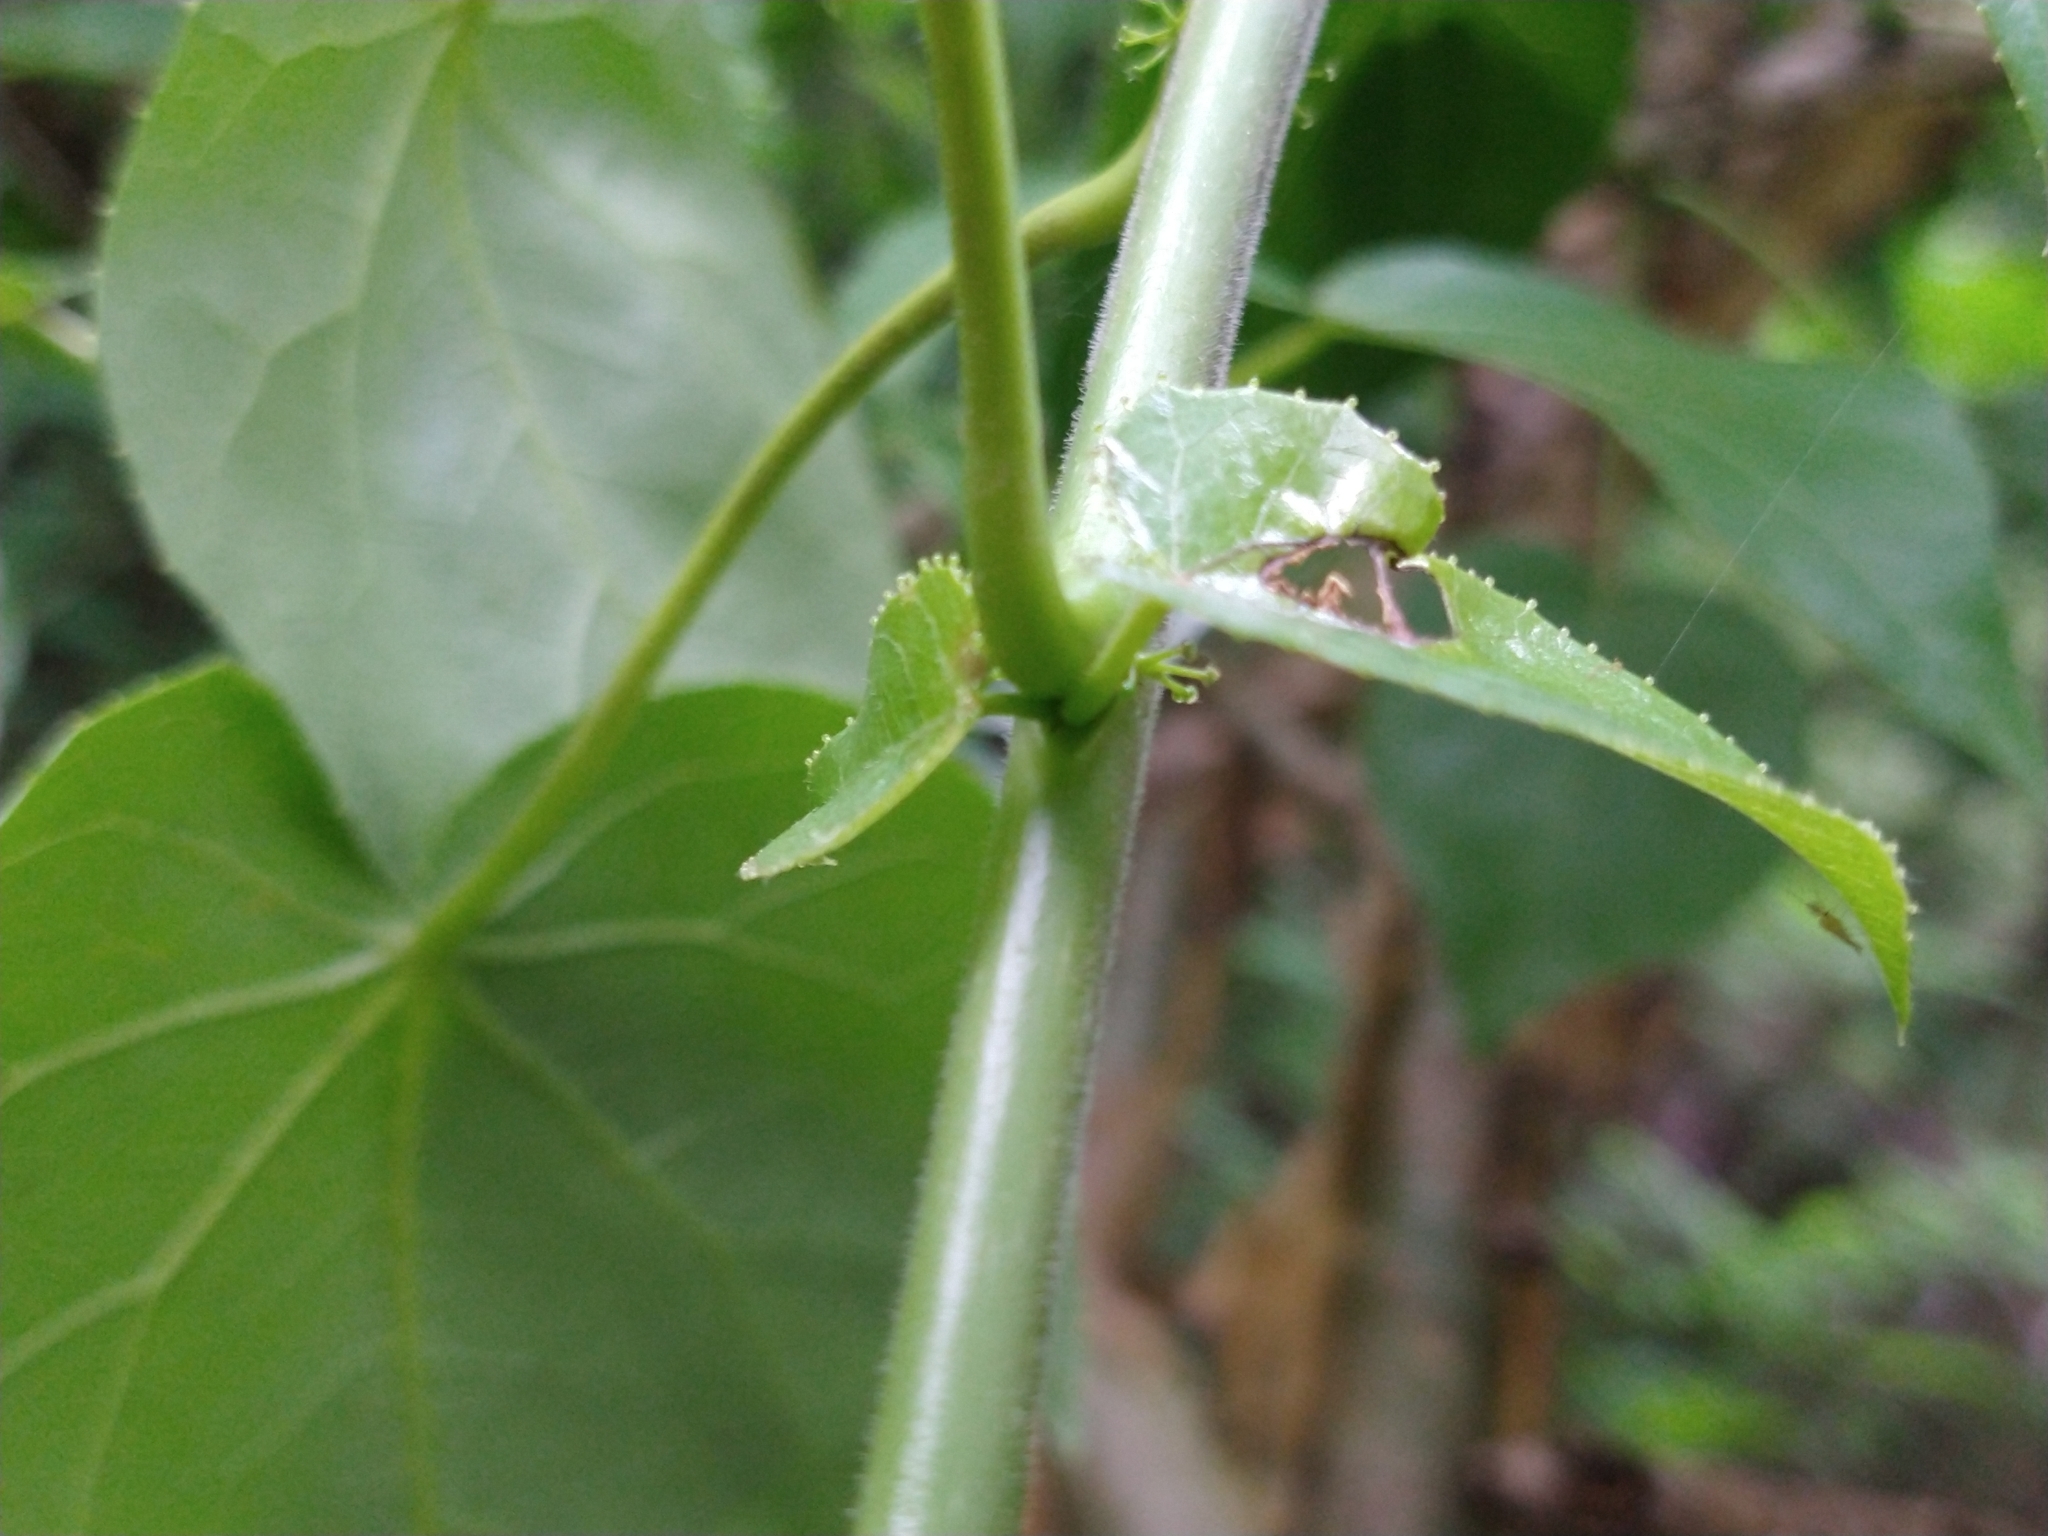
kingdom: Plantae
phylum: Tracheophyta
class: Magnoliopsida
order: Malpighiales
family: Euphorbiaceae
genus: Jatropha
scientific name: Jatropha cordata
